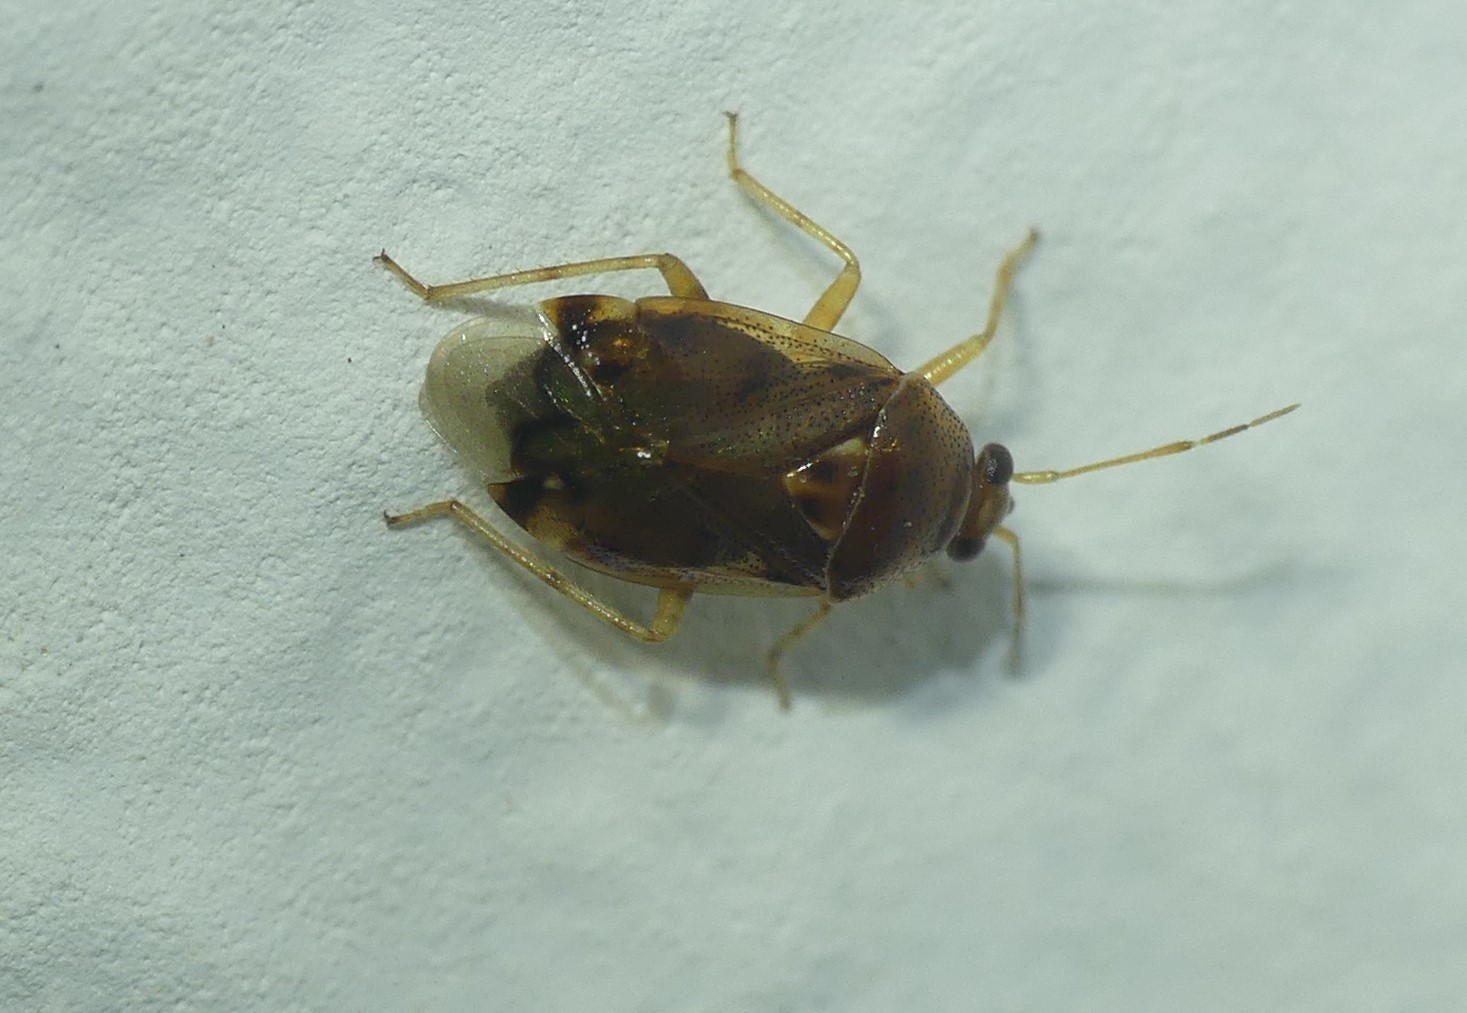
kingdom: Animalia
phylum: Arthropoda
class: Insecta
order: Hemiptera
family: Miridae
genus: Deraeocoris
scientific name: Deraeocoris lutescens
